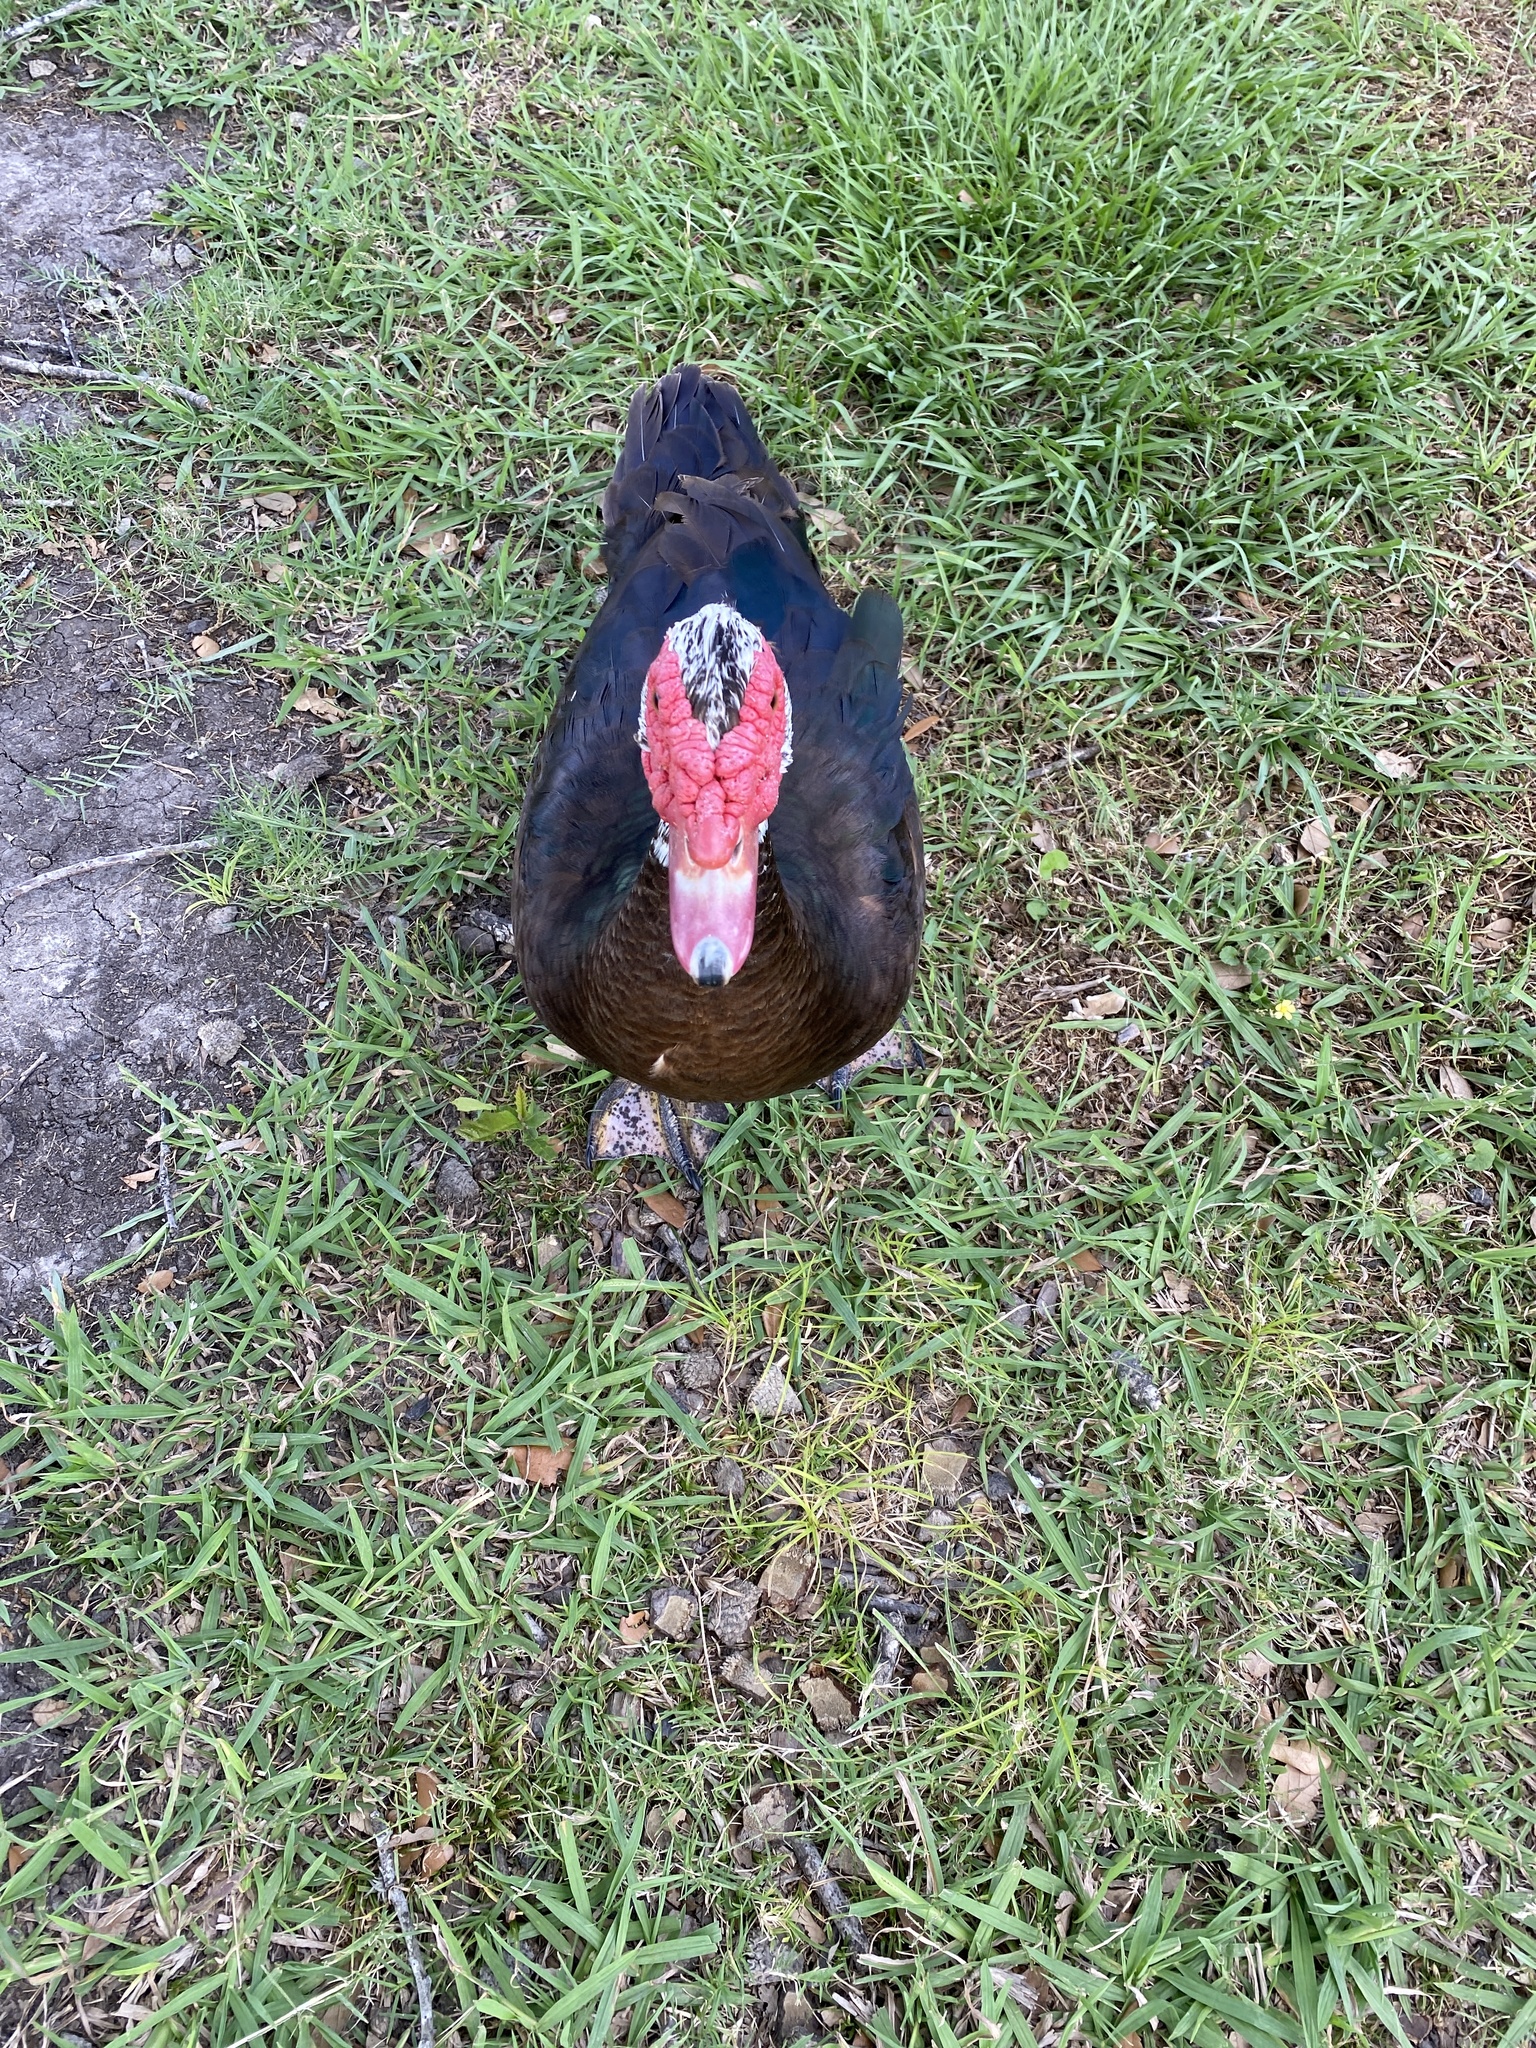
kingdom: Animalia
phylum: Chordata
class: Aves
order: Anseriformes
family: Anatidae
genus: Cairina
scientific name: Cairina moschata
